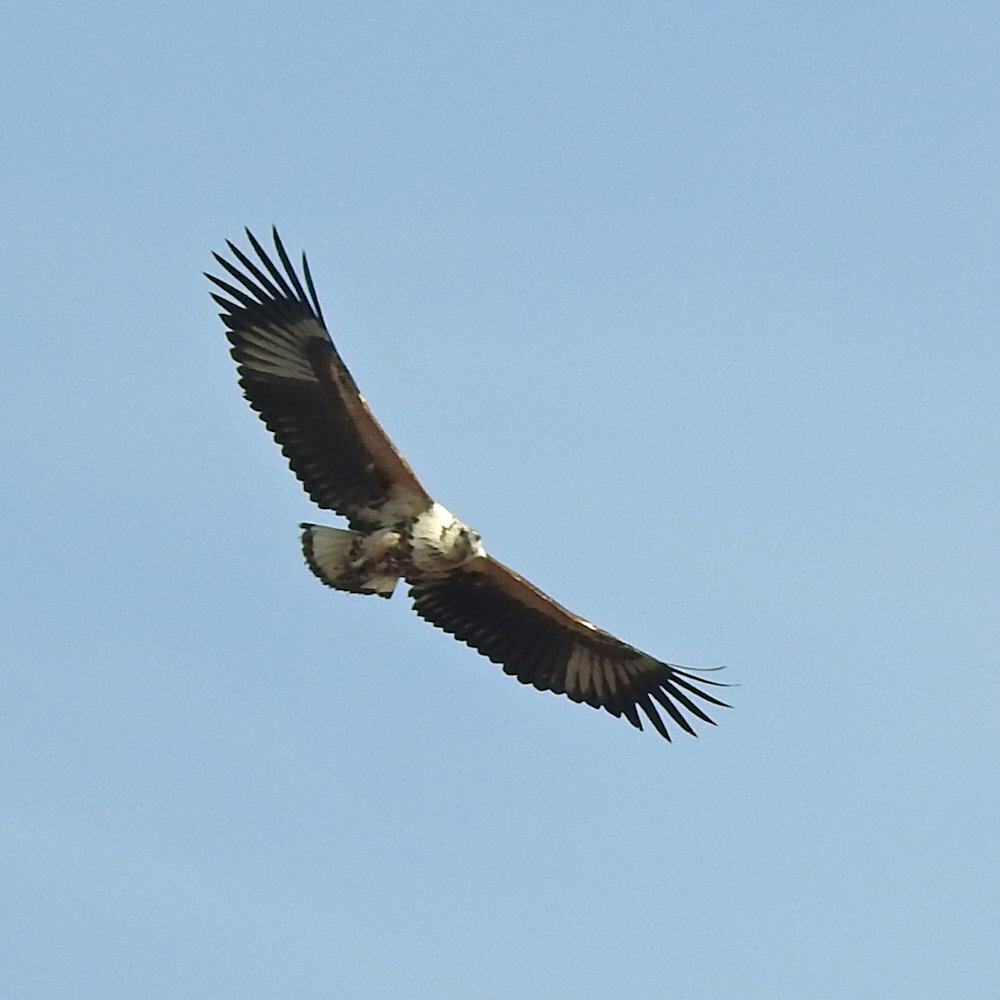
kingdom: Animalia
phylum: Chordata
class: Aves
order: Accipitriformes
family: Accipitridae
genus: Haliaeetus
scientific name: Haliaeetus vocifer
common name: African fish eagle
